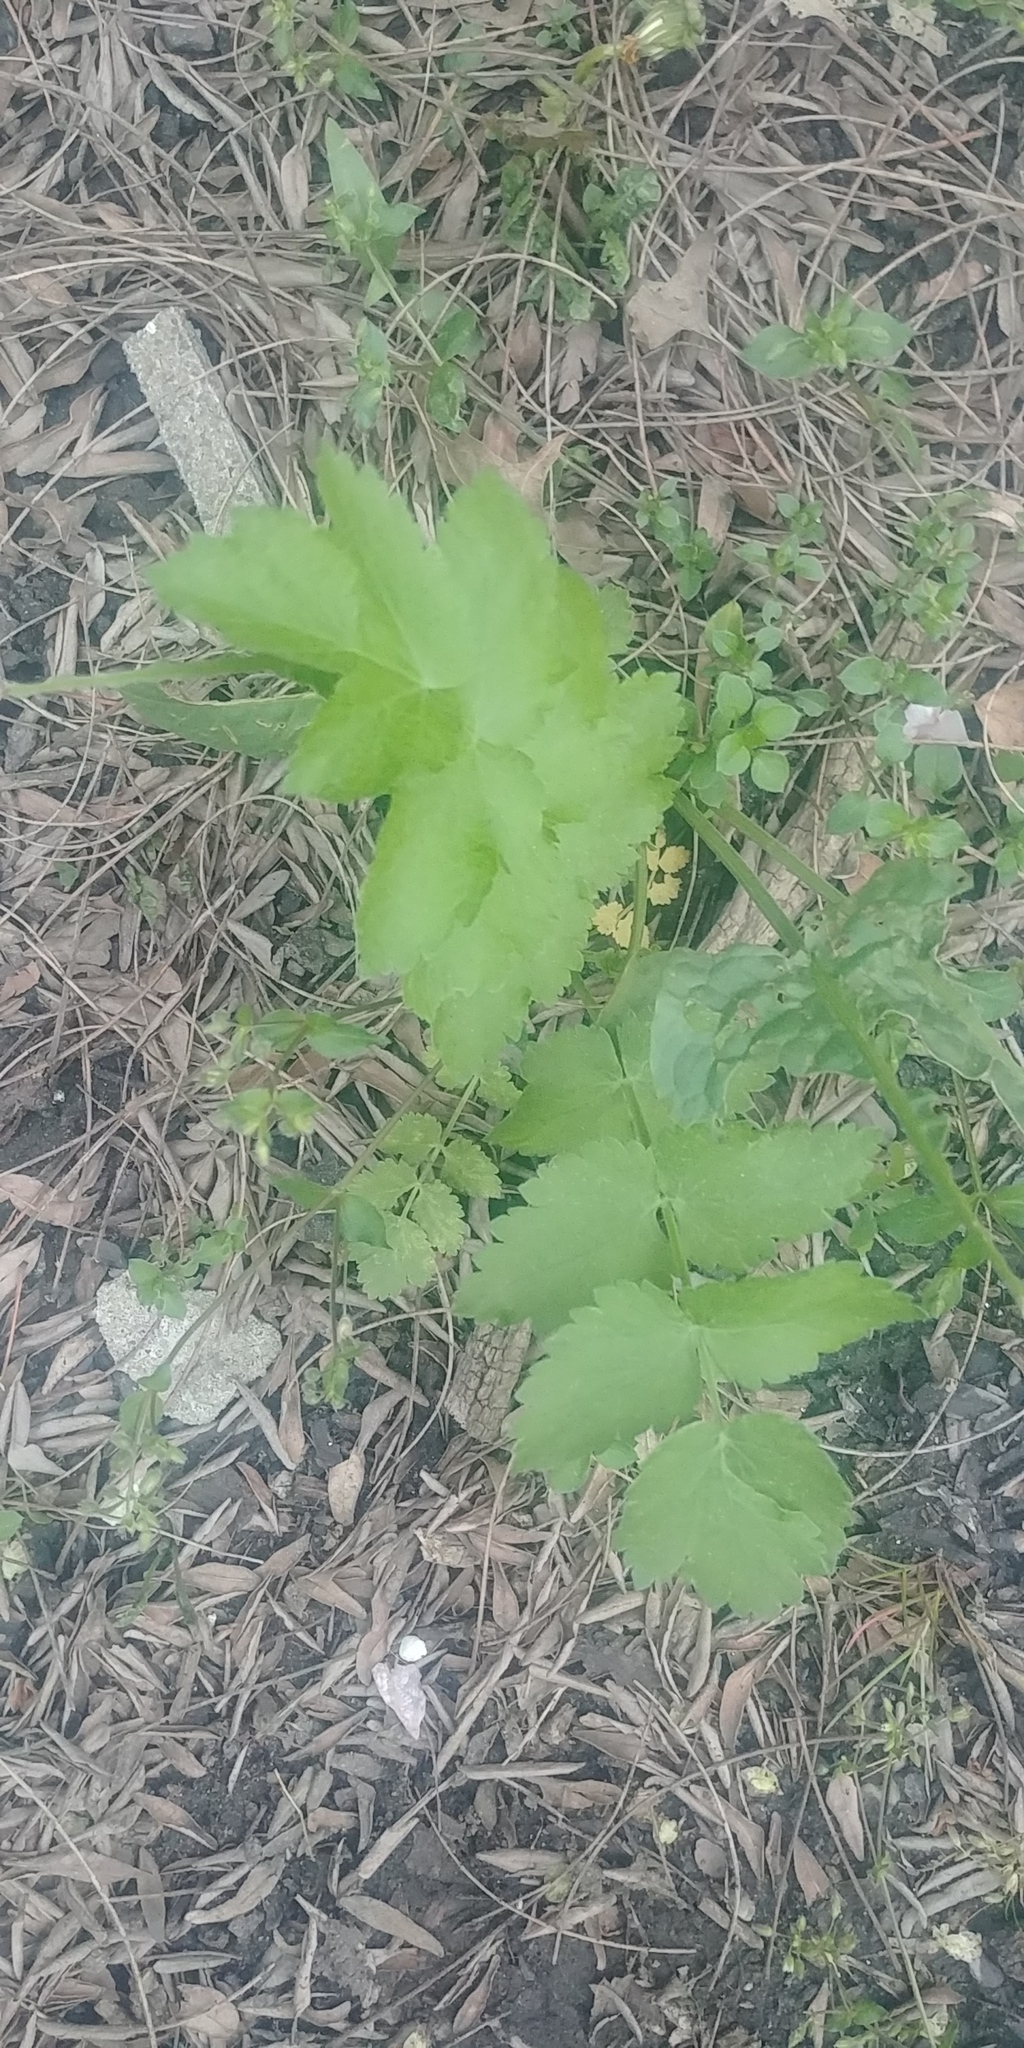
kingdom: Plantae
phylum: Tracheophyta
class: Magnoliopsida
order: Apiales
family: Apiaceae
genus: Pastinaca
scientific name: Pastinaca sativa
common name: Wild parsnip
